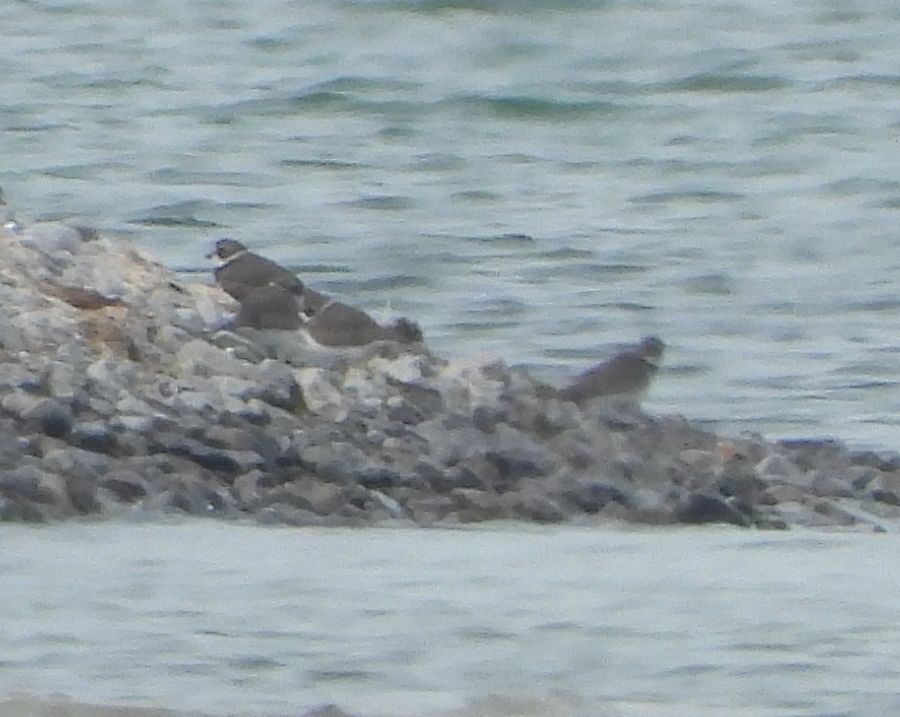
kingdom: Animalia
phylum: Chordata
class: Aves
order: Charadriiformes
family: Charadriidae
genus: Charadrius
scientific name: Charadrius semipalmatus
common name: Semipalmated plover
